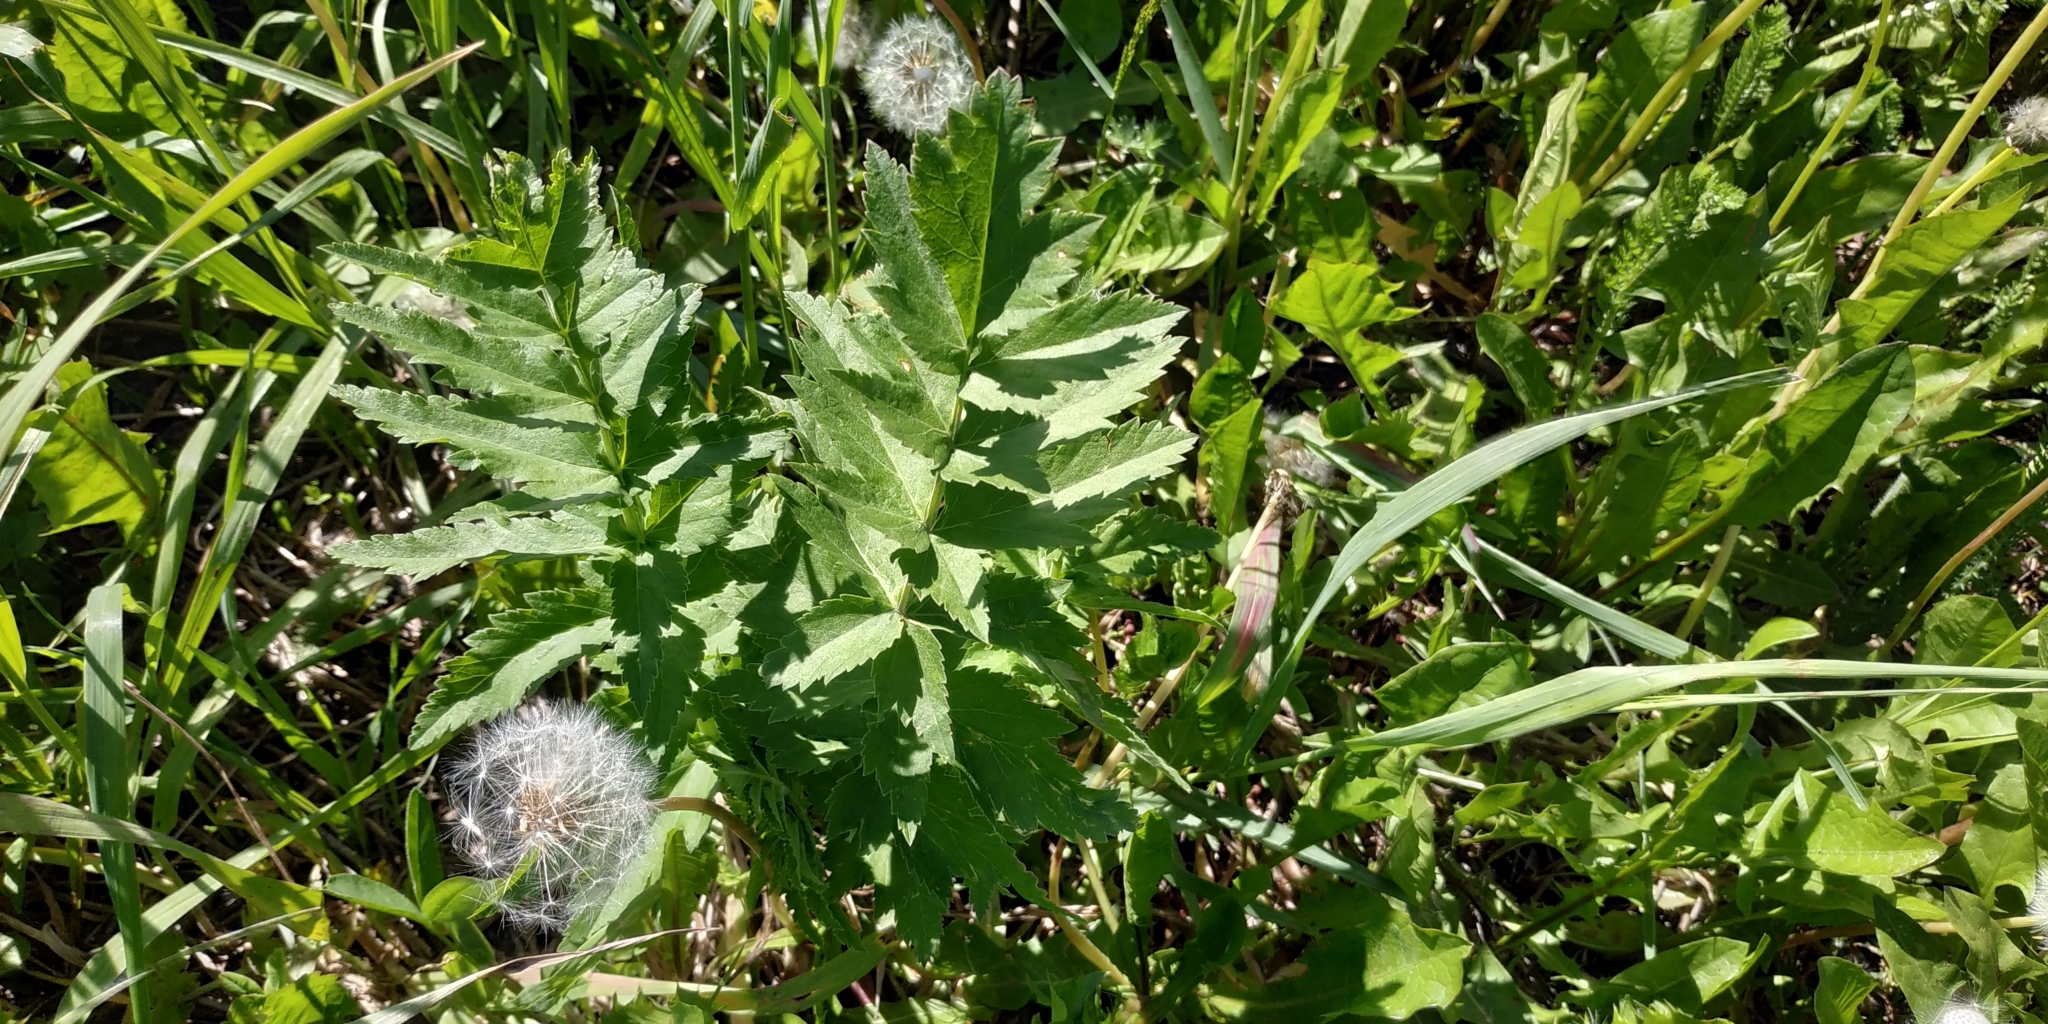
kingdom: Plantae
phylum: Tracheophyta
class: Magnoliopsida
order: Apiales
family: Apiaceae
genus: Pastinaca
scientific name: Pastinaca sativa
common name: Wild parsnip
